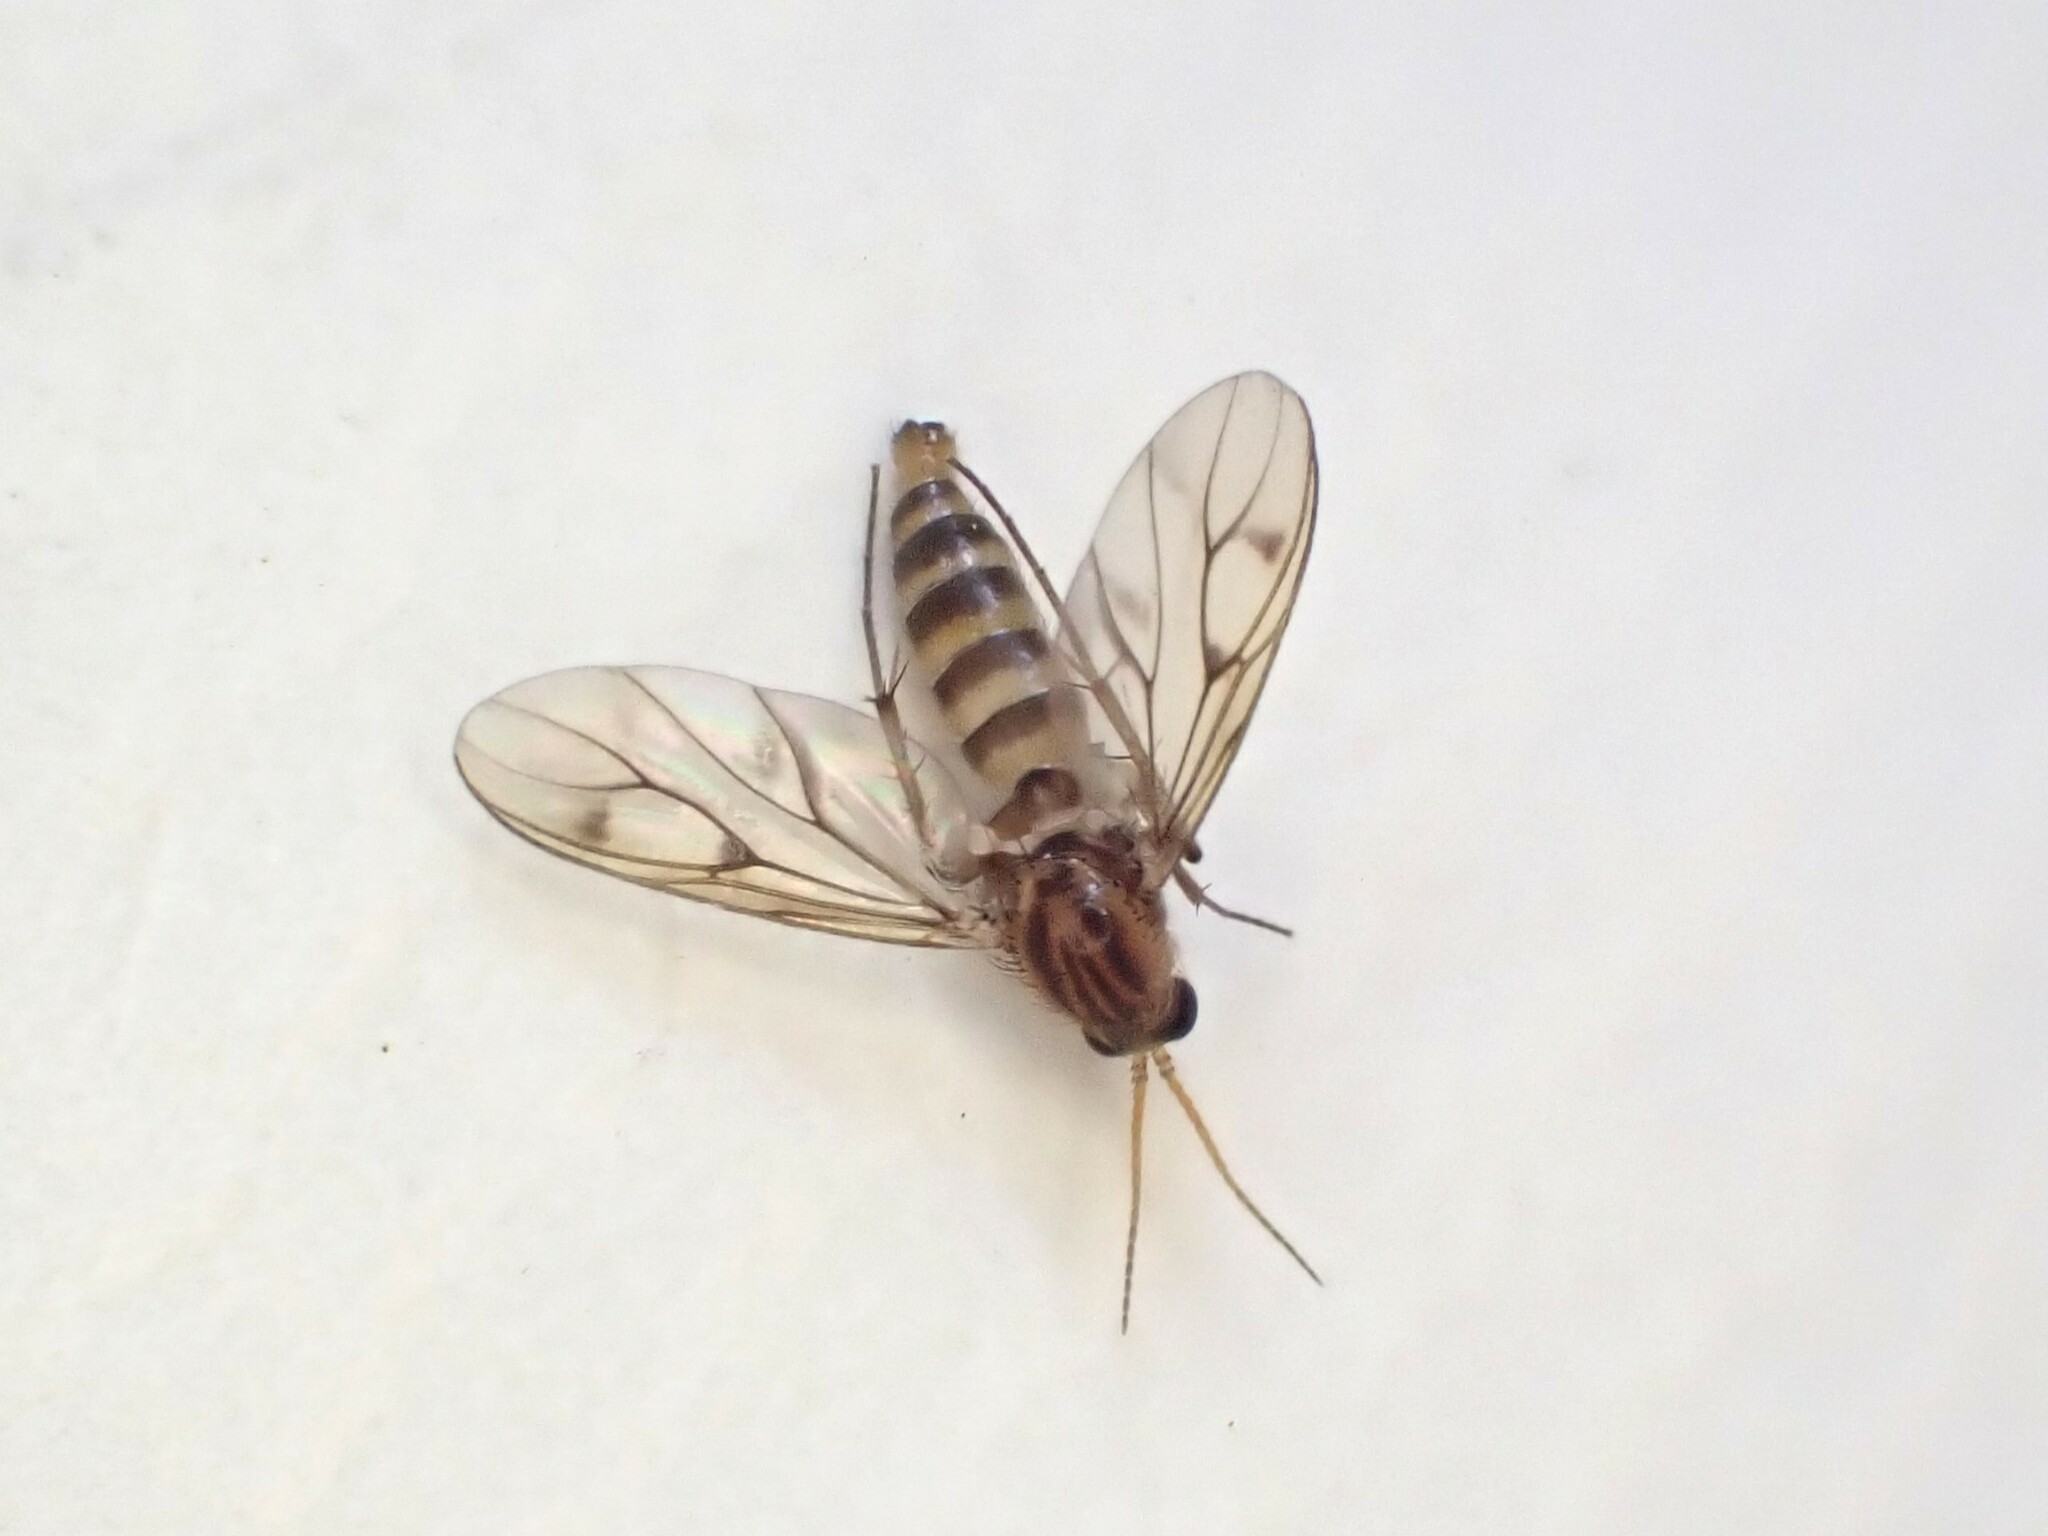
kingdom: Animalia
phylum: Arthropoda
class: Insecta
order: Diptera
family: Mycetophilidae
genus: Anomalomyia
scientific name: Anomalomyia guttata
